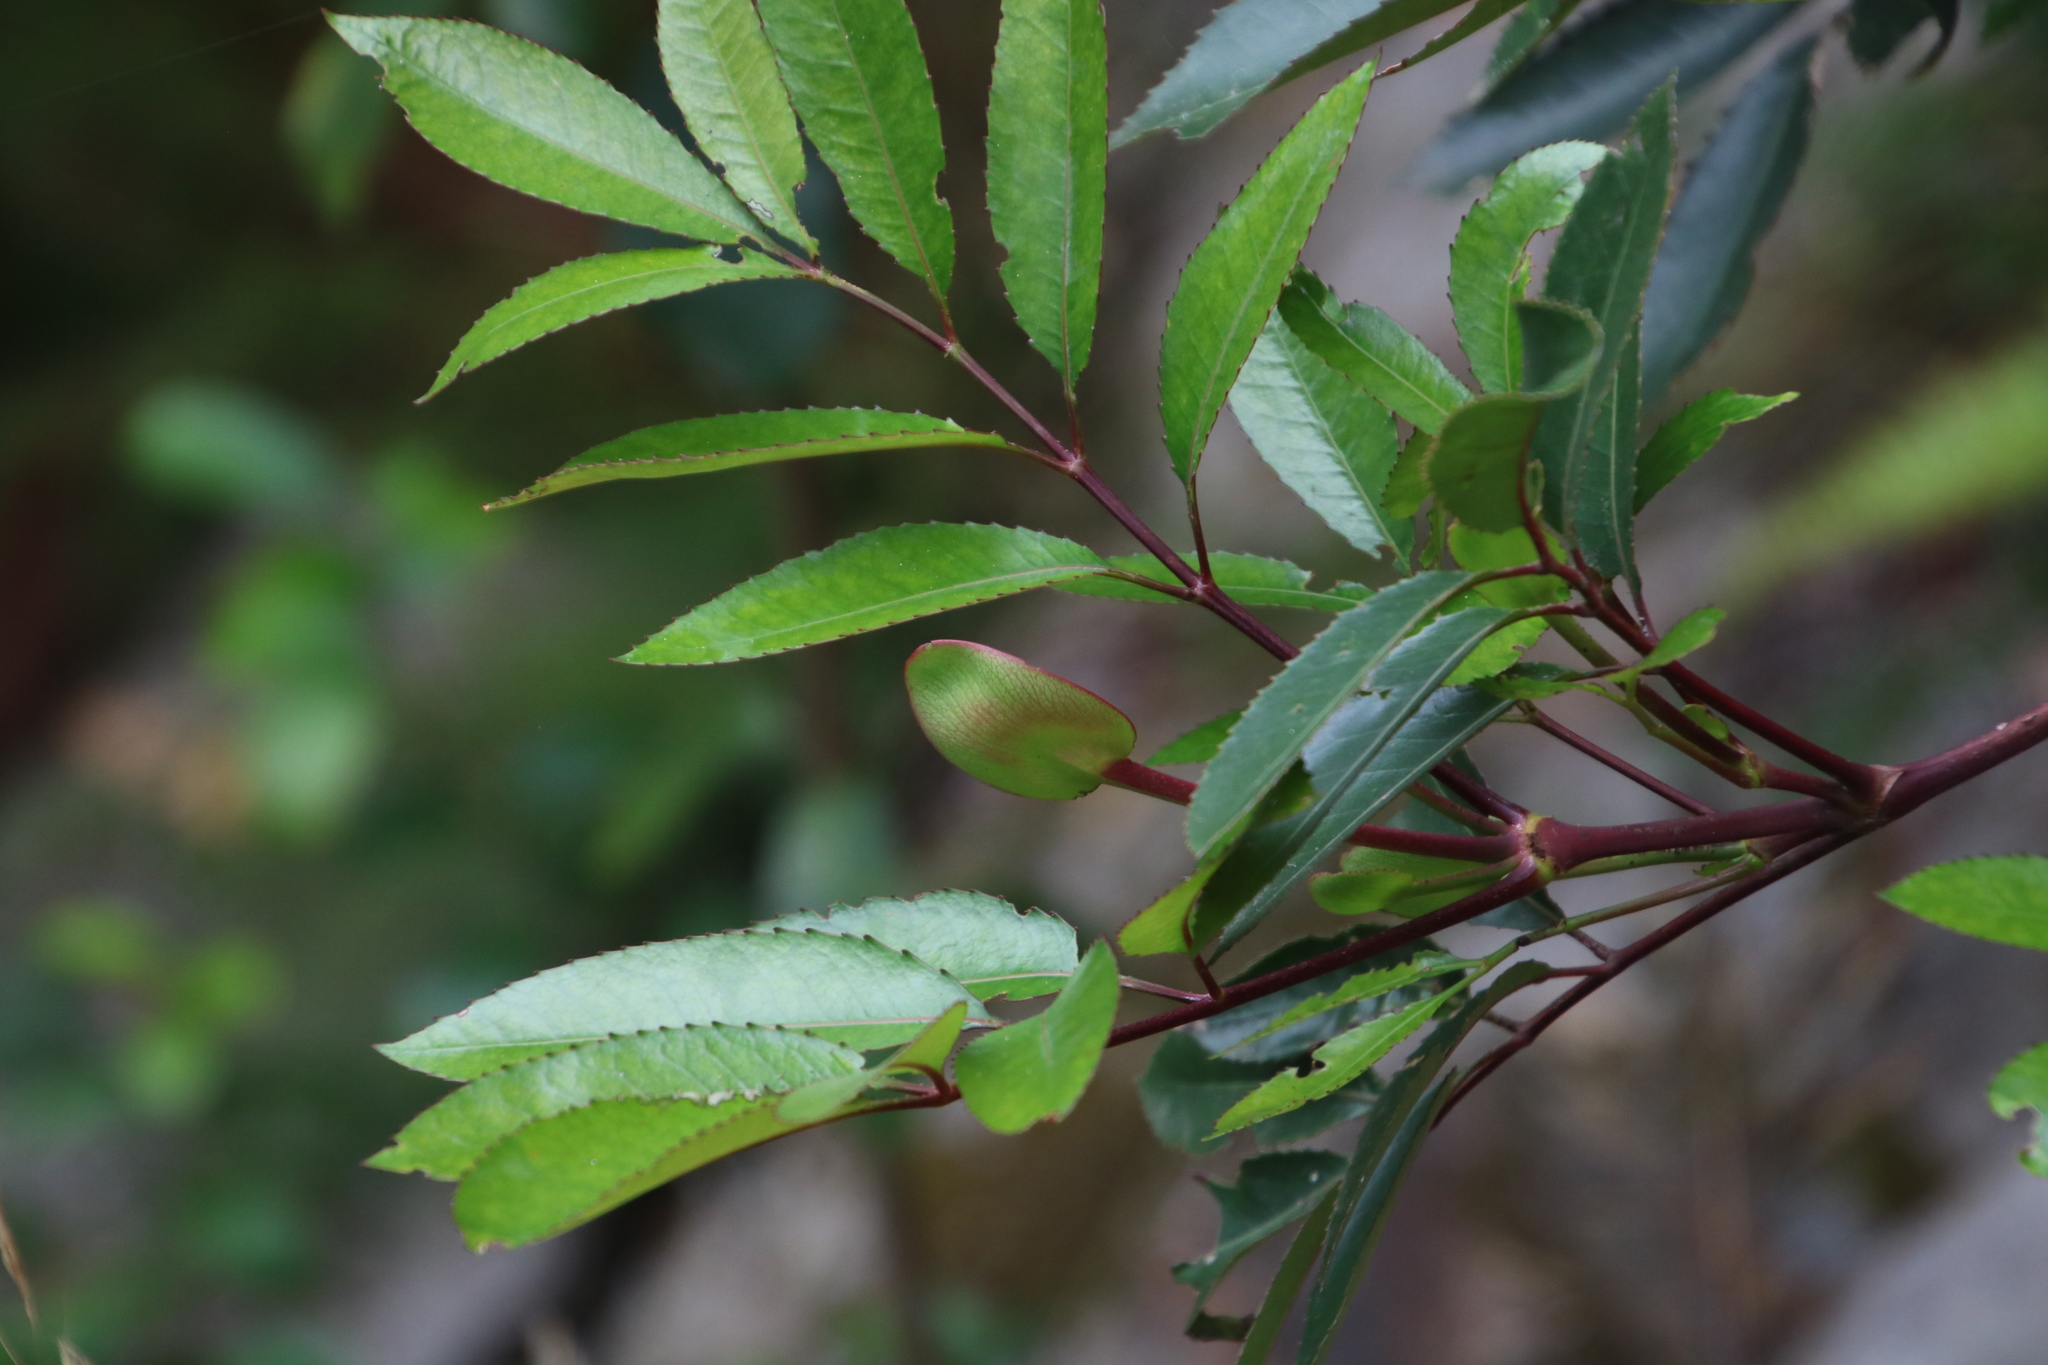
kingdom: Plantae
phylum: Tracheophyta
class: Magnoliopsida
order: Oxalidales
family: Cunoniaceae
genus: Cunonia
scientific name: Cunonia capensis
